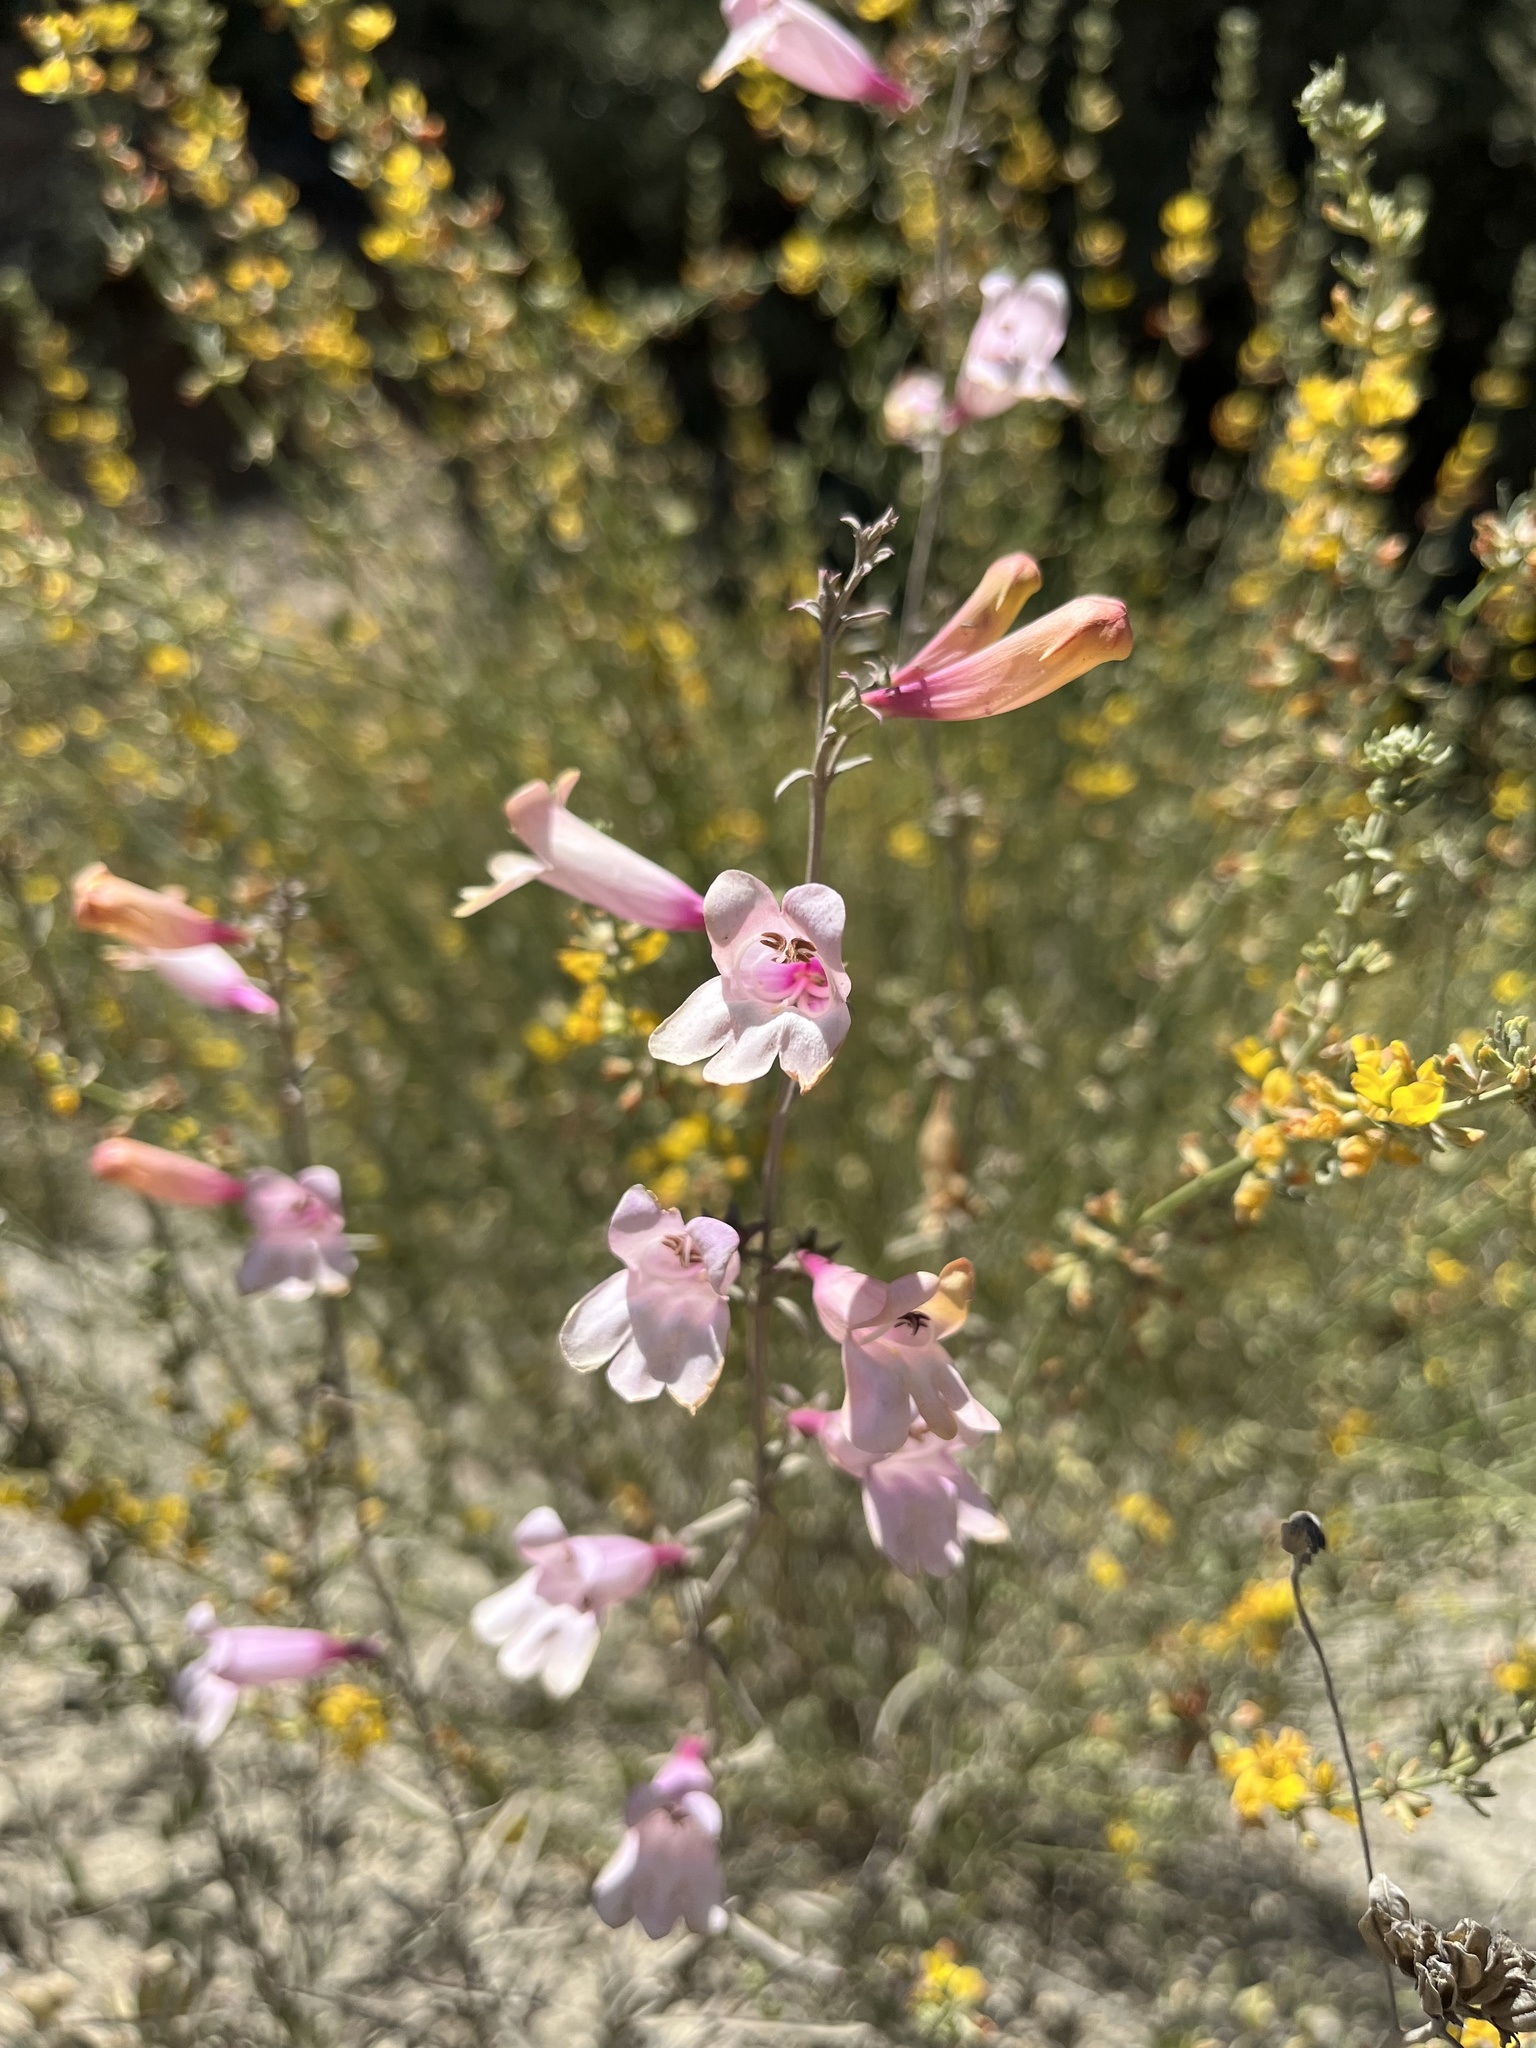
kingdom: Plantae
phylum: Tracheophyta
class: Magnoliopsida
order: Lamiales
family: Plantaginaceae
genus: Penstemon
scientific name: Penstemon heterophyllus
